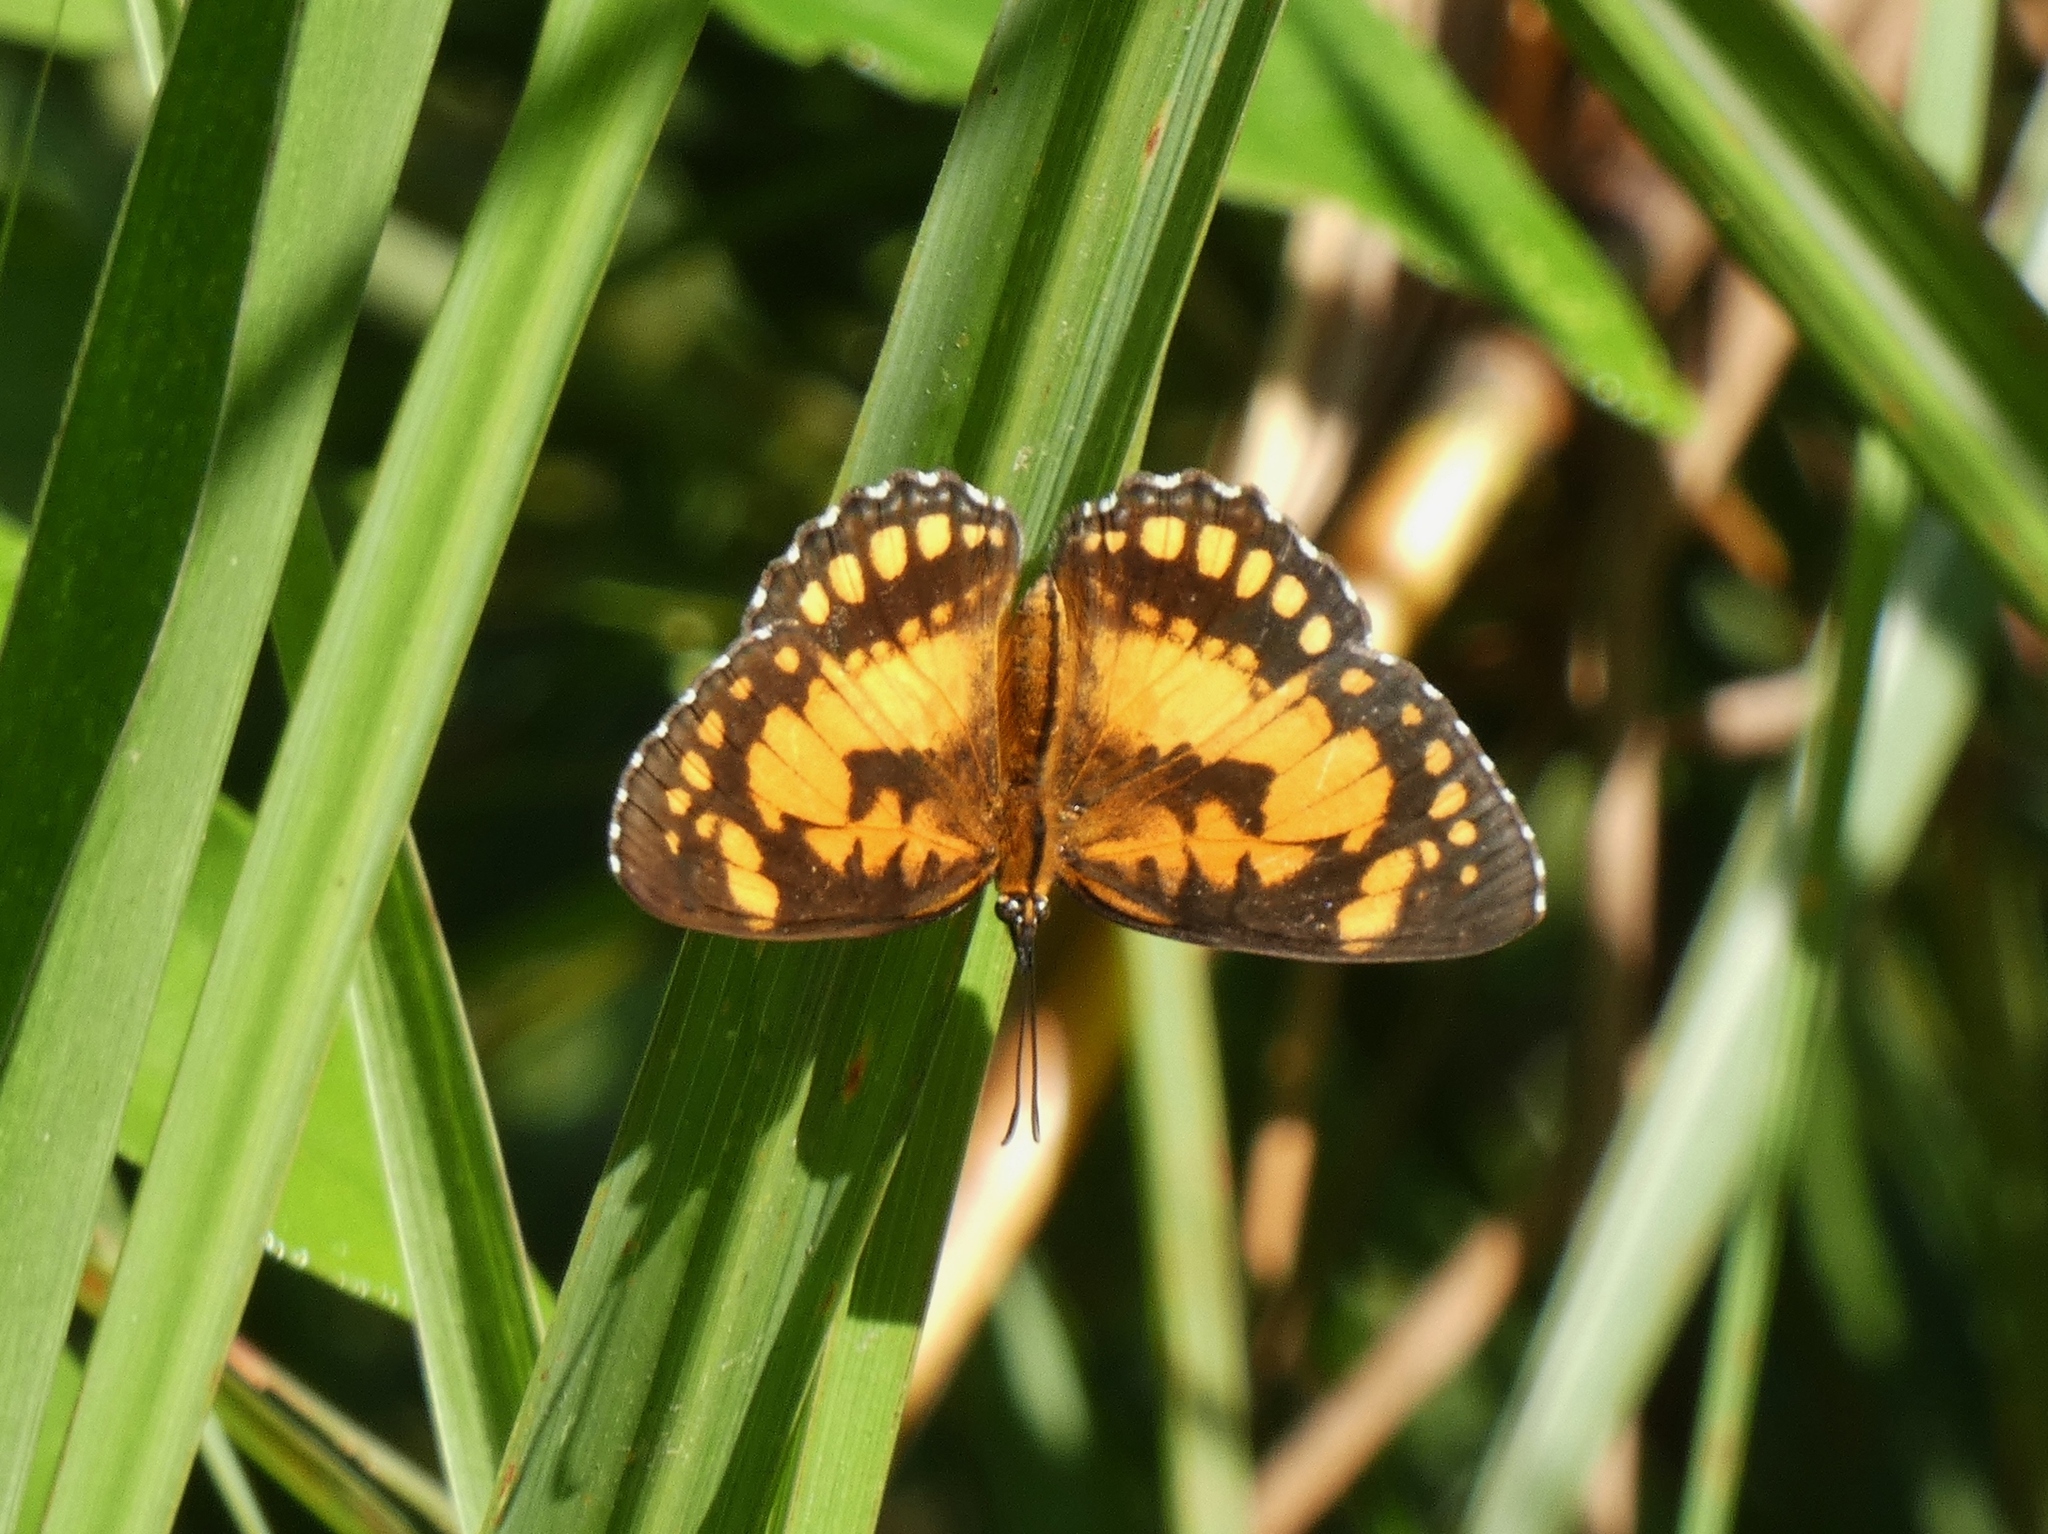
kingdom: Animalia
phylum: Arthropoda
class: Insecta
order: Lepidoptera
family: Nymphalidae
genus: Byblia
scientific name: Byblia anvatara
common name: African joker
